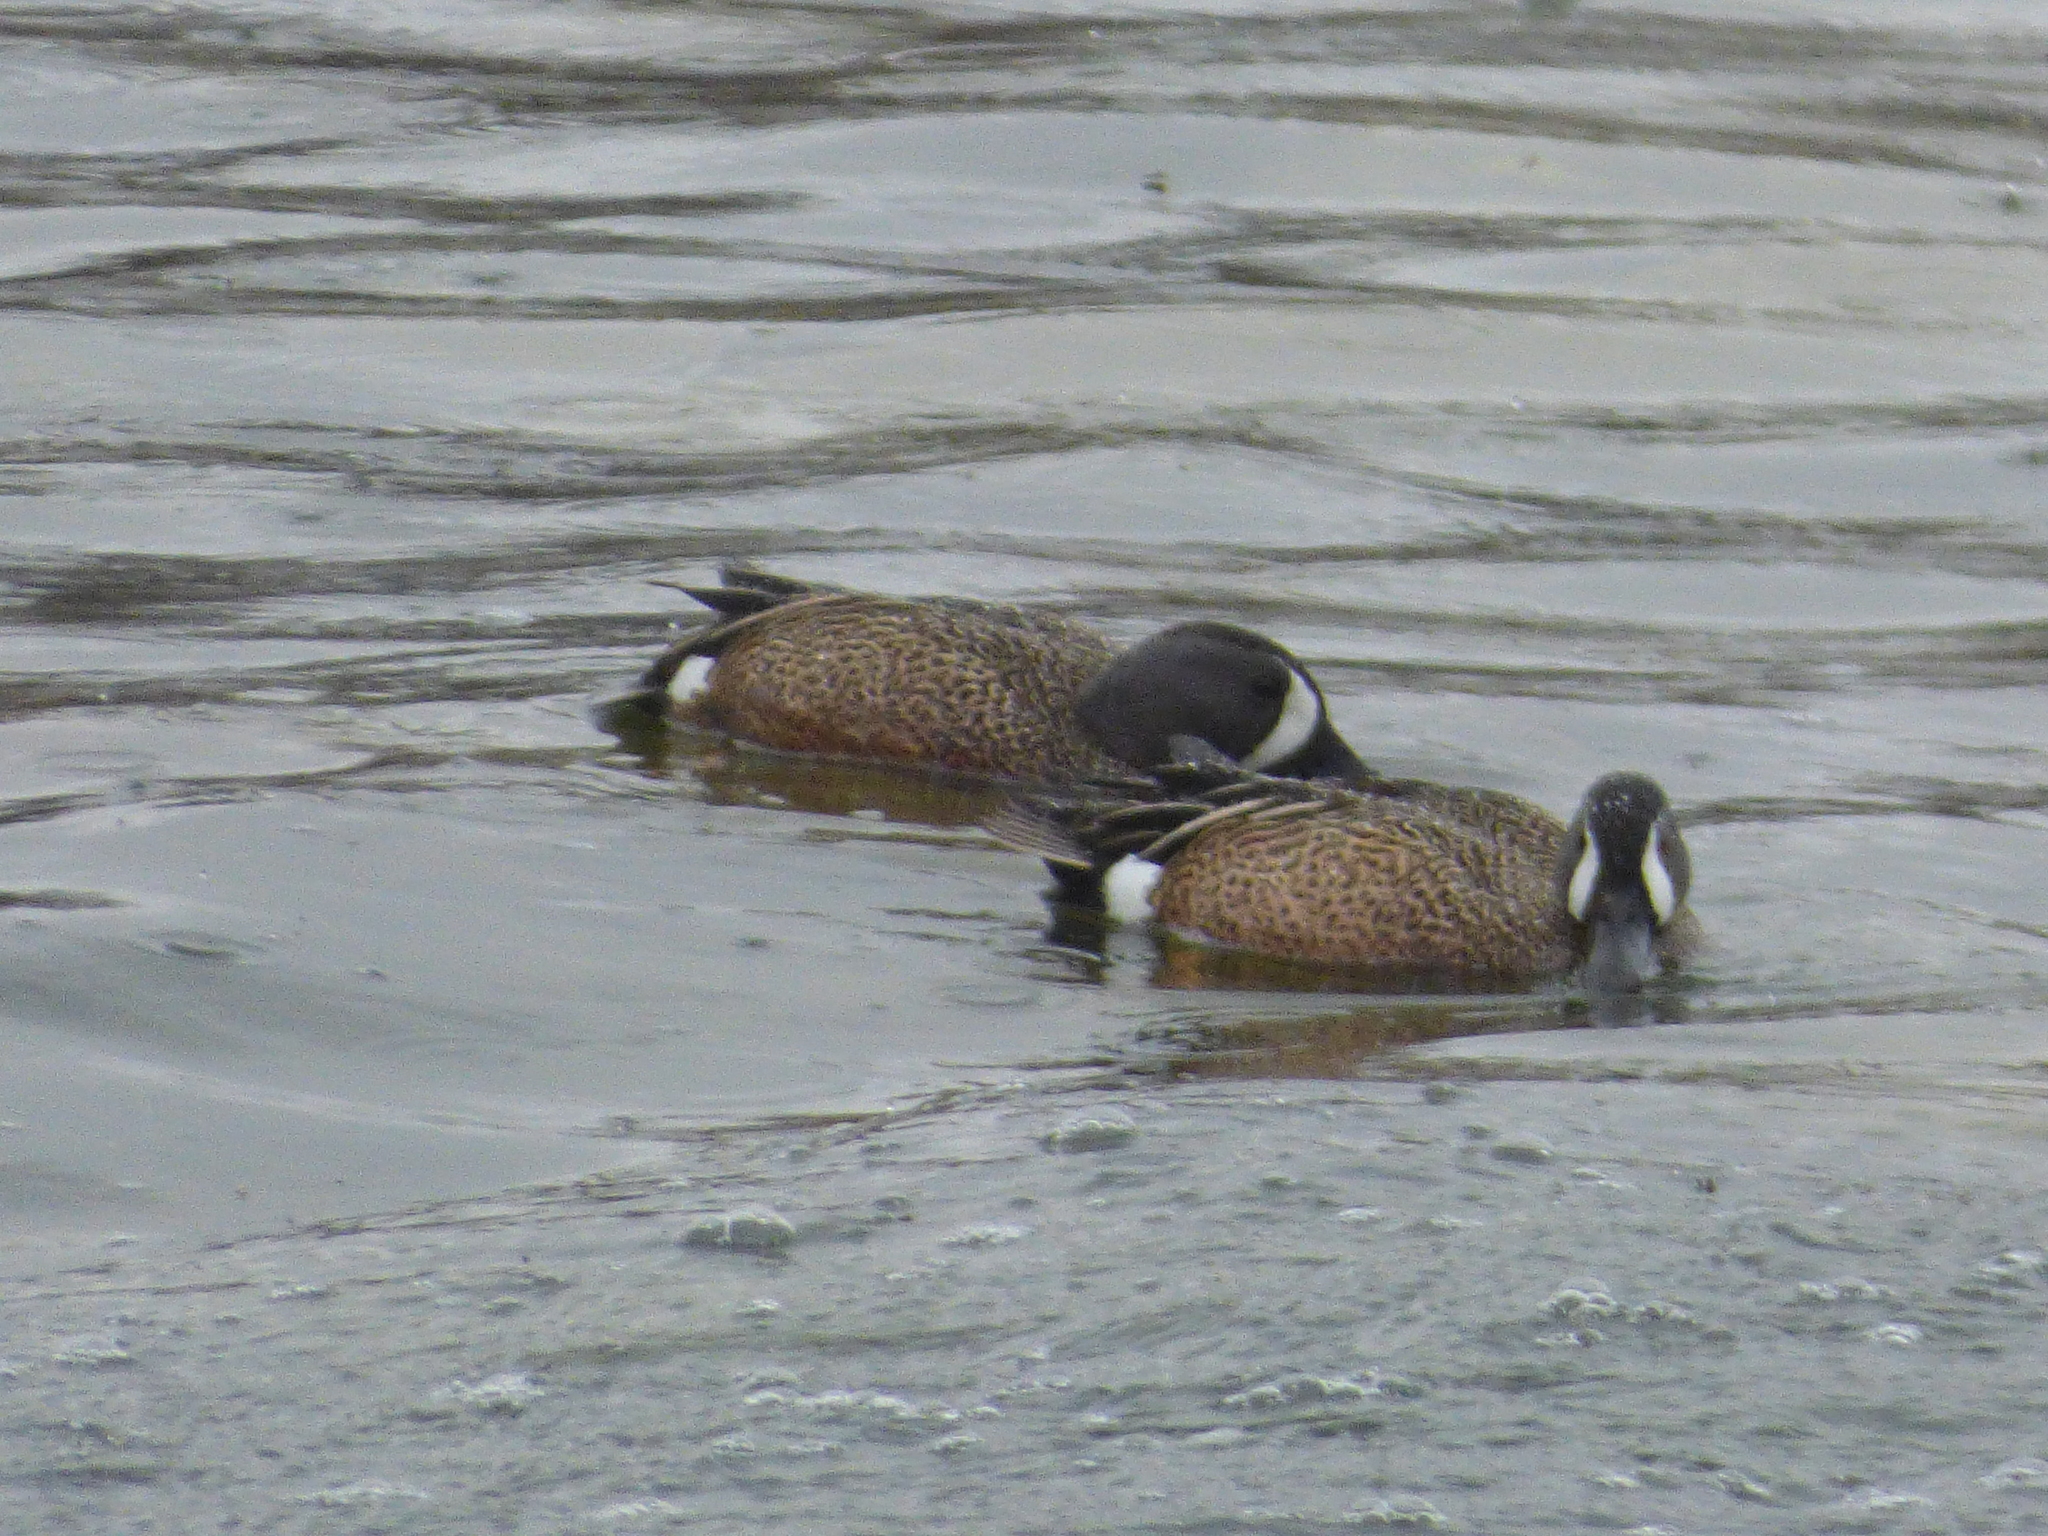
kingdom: Animalia
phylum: Chordata
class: Aves
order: Anseriformes
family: Anatidae
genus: Spatula
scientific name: Spatula discors
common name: Blue-winged teal
